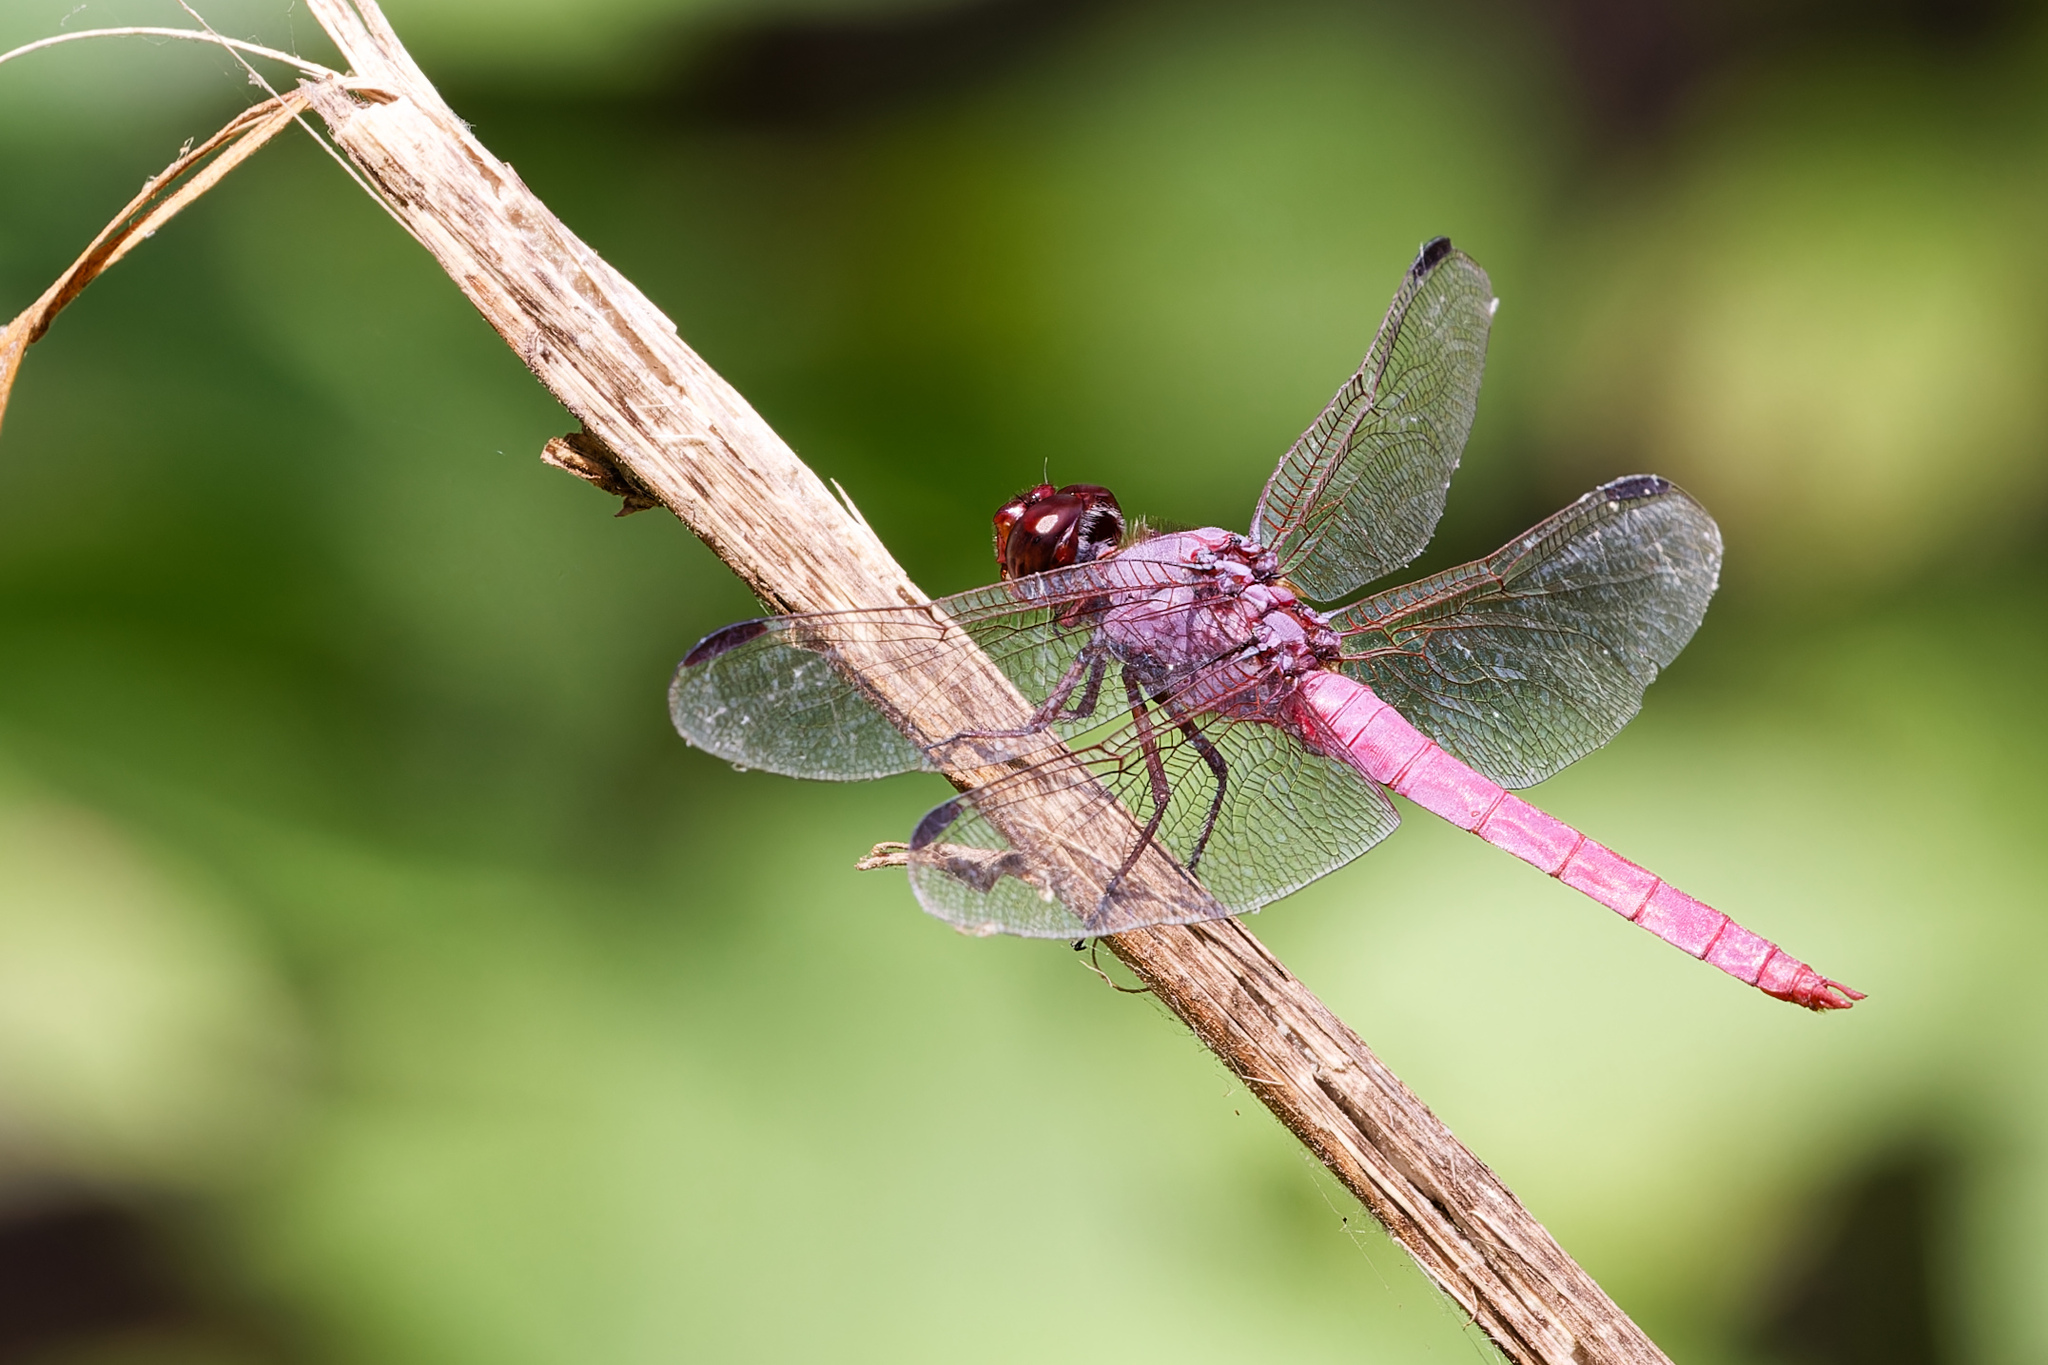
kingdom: Animalia
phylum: Arthropoda
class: Insecta
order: Odonata
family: Libellulidae
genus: Orthemis
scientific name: Orthemis ferruginea
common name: Roseate skimmer
